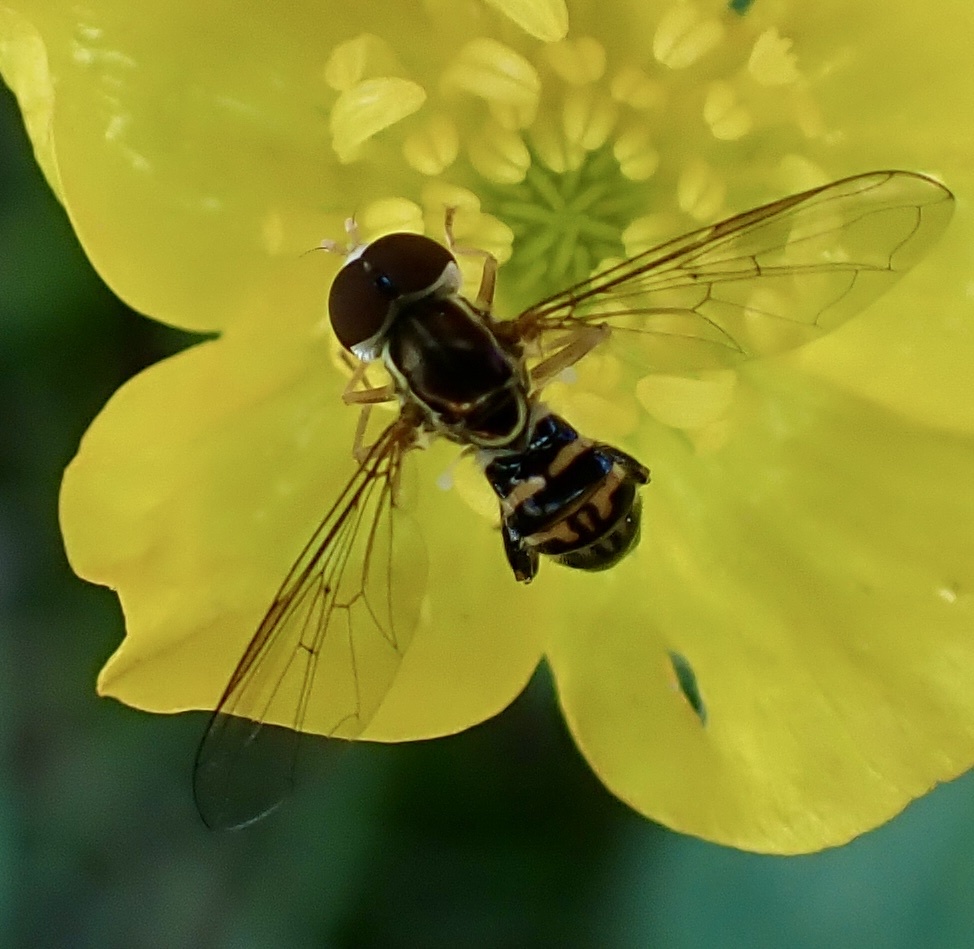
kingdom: Animalia
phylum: Arthropoda
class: Insecta
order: Diptera
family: Syrphidae
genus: Toxomerus
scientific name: Toxomerus geminatus
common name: Eastern calligrapher
